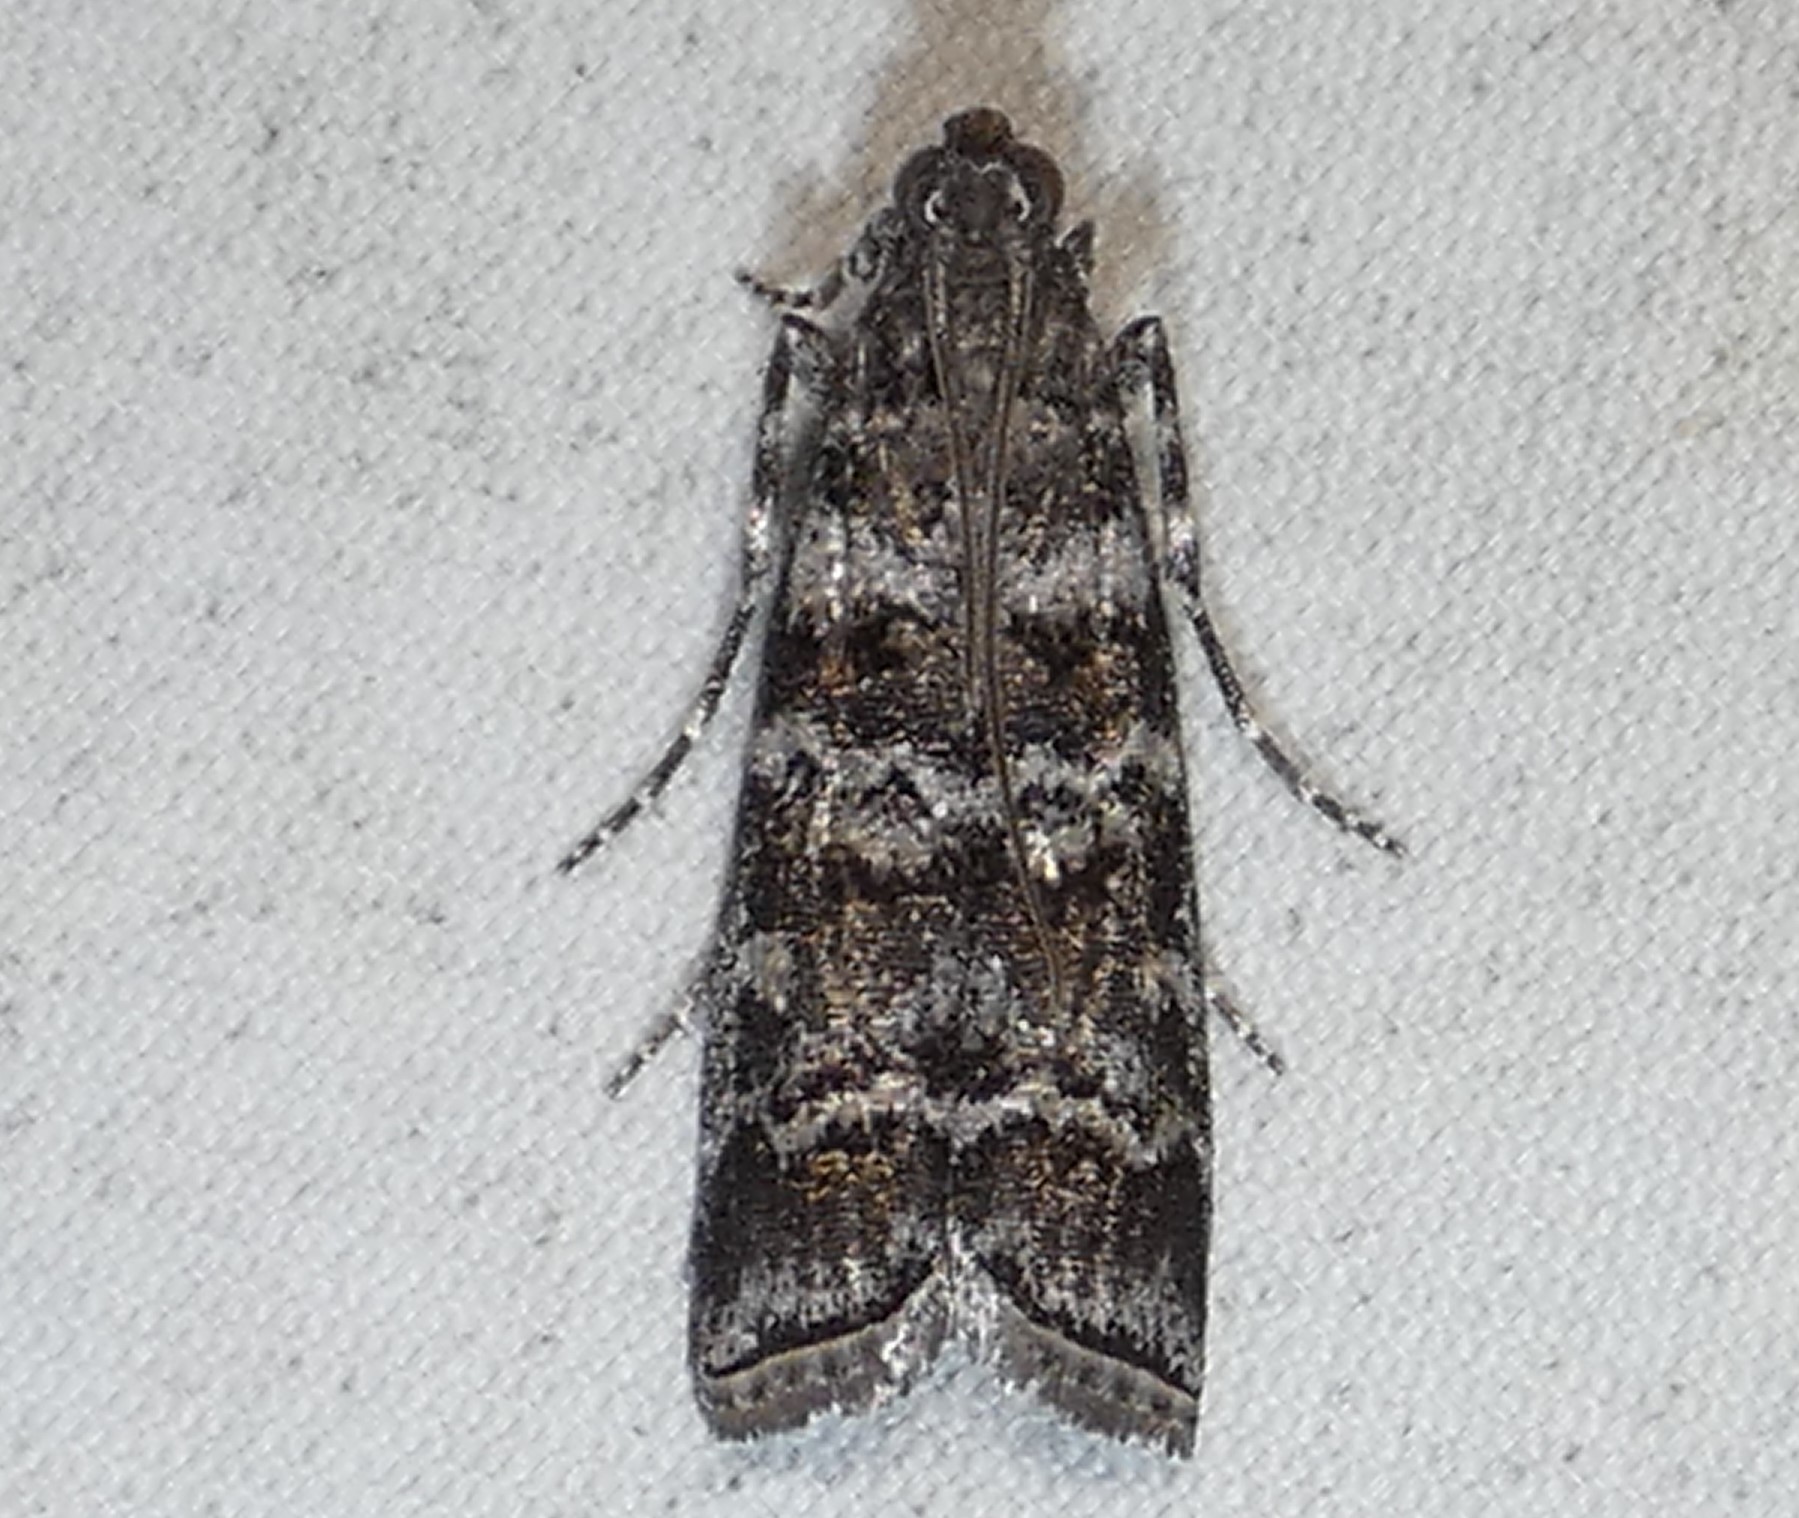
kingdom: Animalia
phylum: Arthropoda
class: Insecta
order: Lepidoptera
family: Pyralidae
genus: Dioryctria
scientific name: Dioryctria amatella
